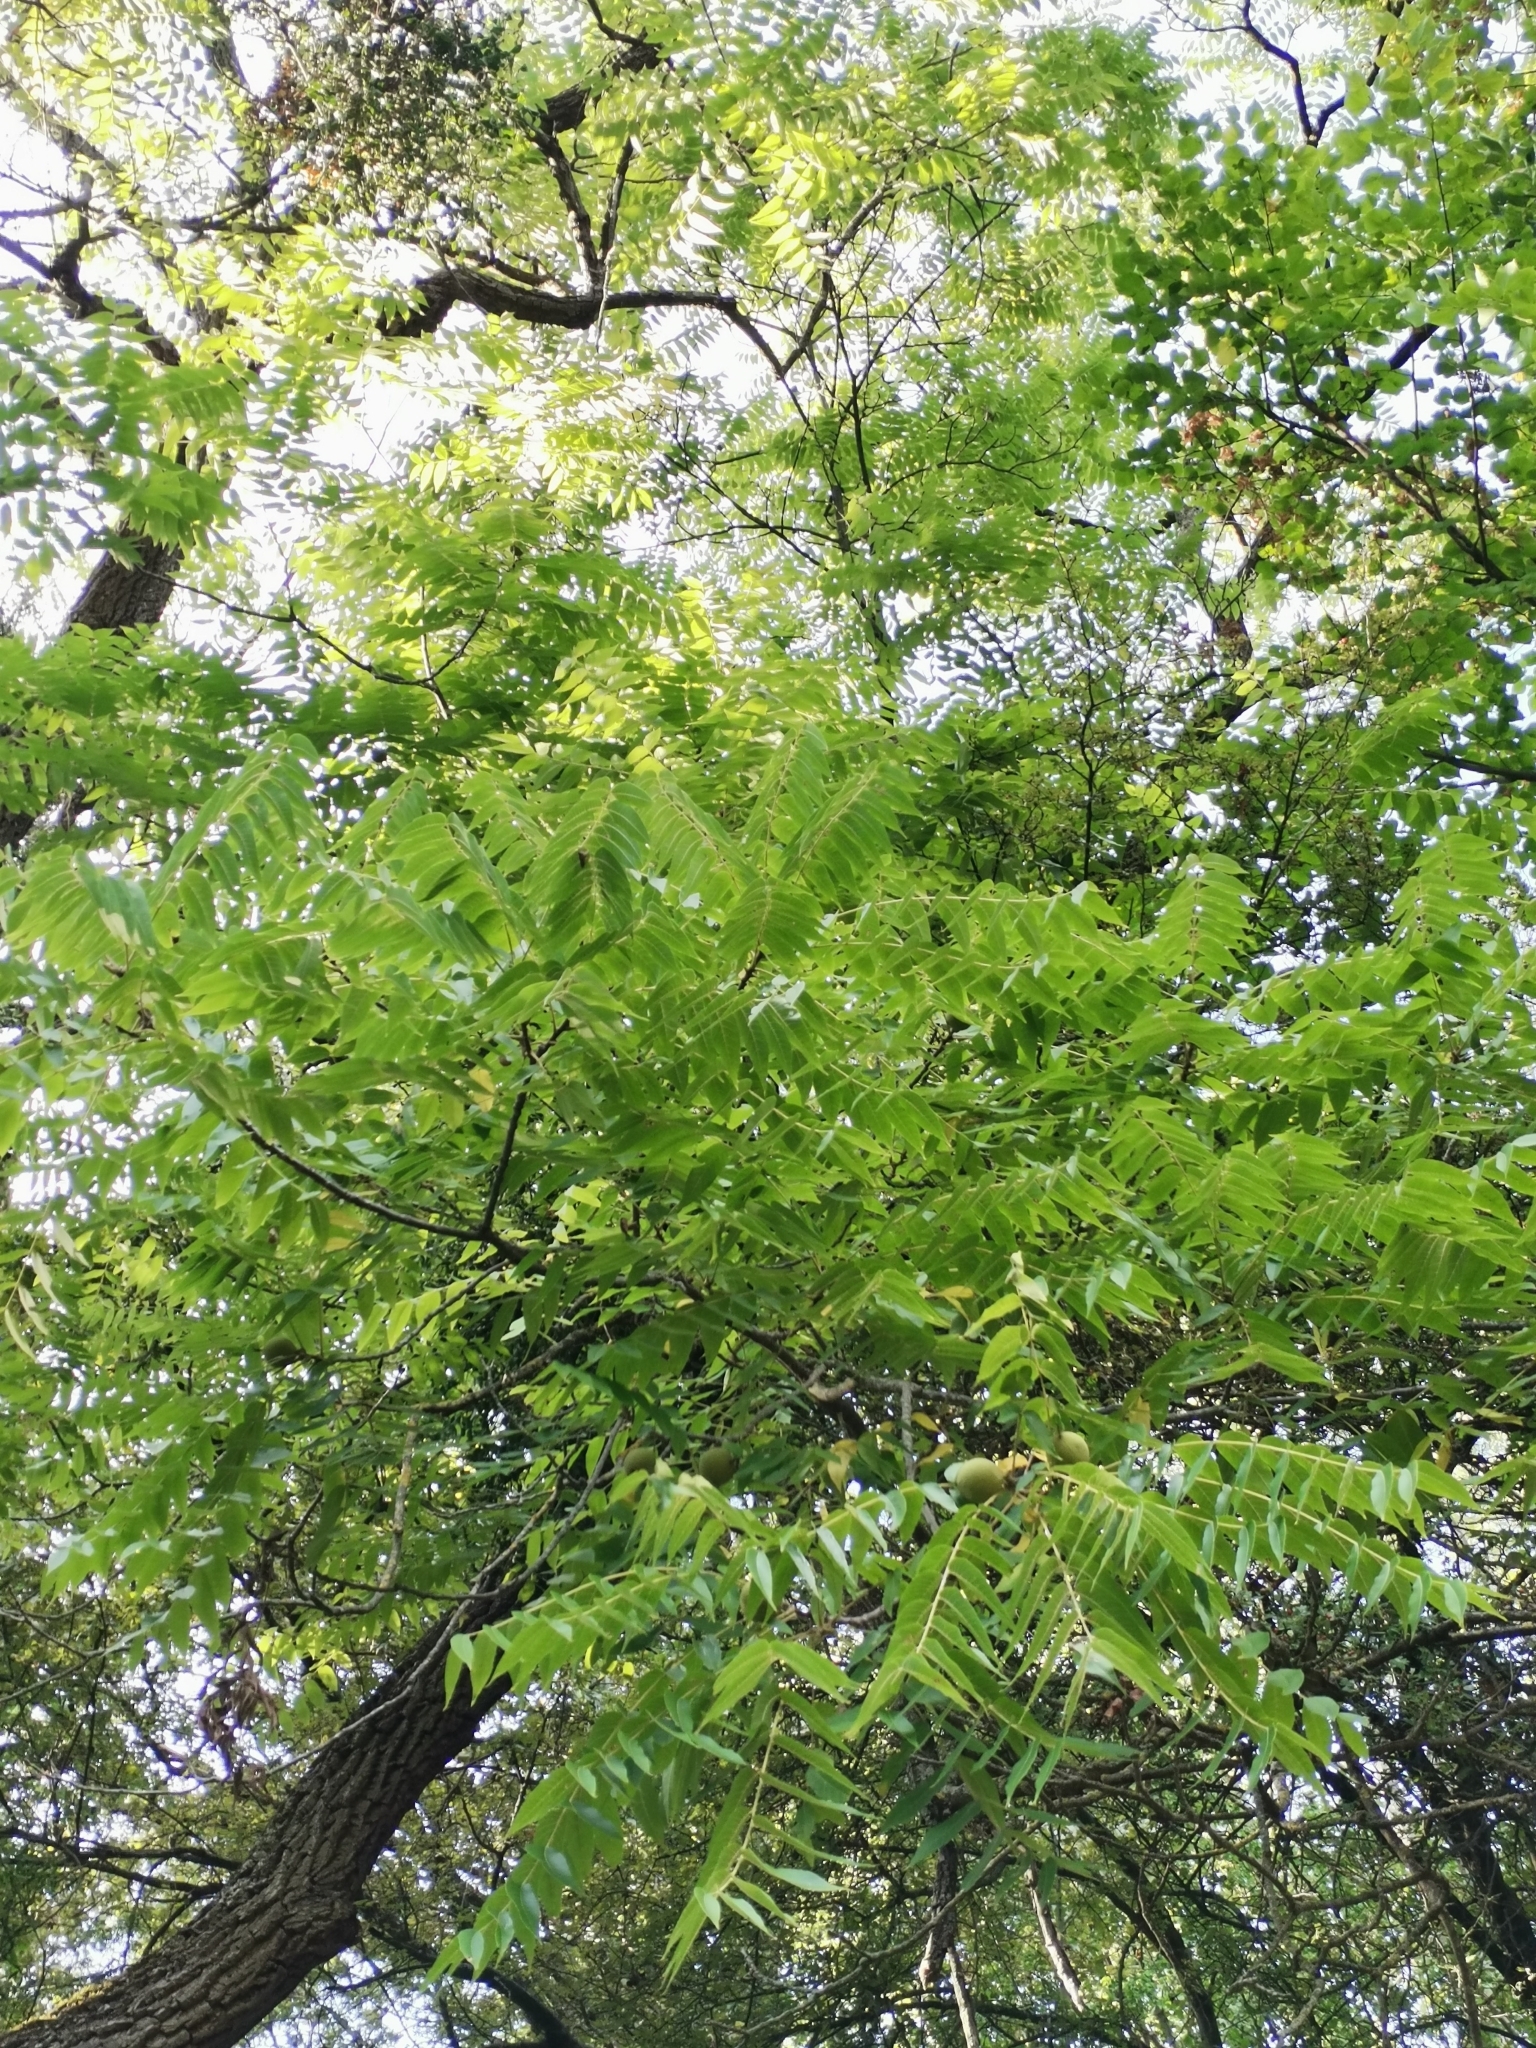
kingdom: Plantae
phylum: Tracheophyta
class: Magnoliopsida
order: Fagales
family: Juglandaceae
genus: Juglans
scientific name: Juglans nigra
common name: Black walnut
